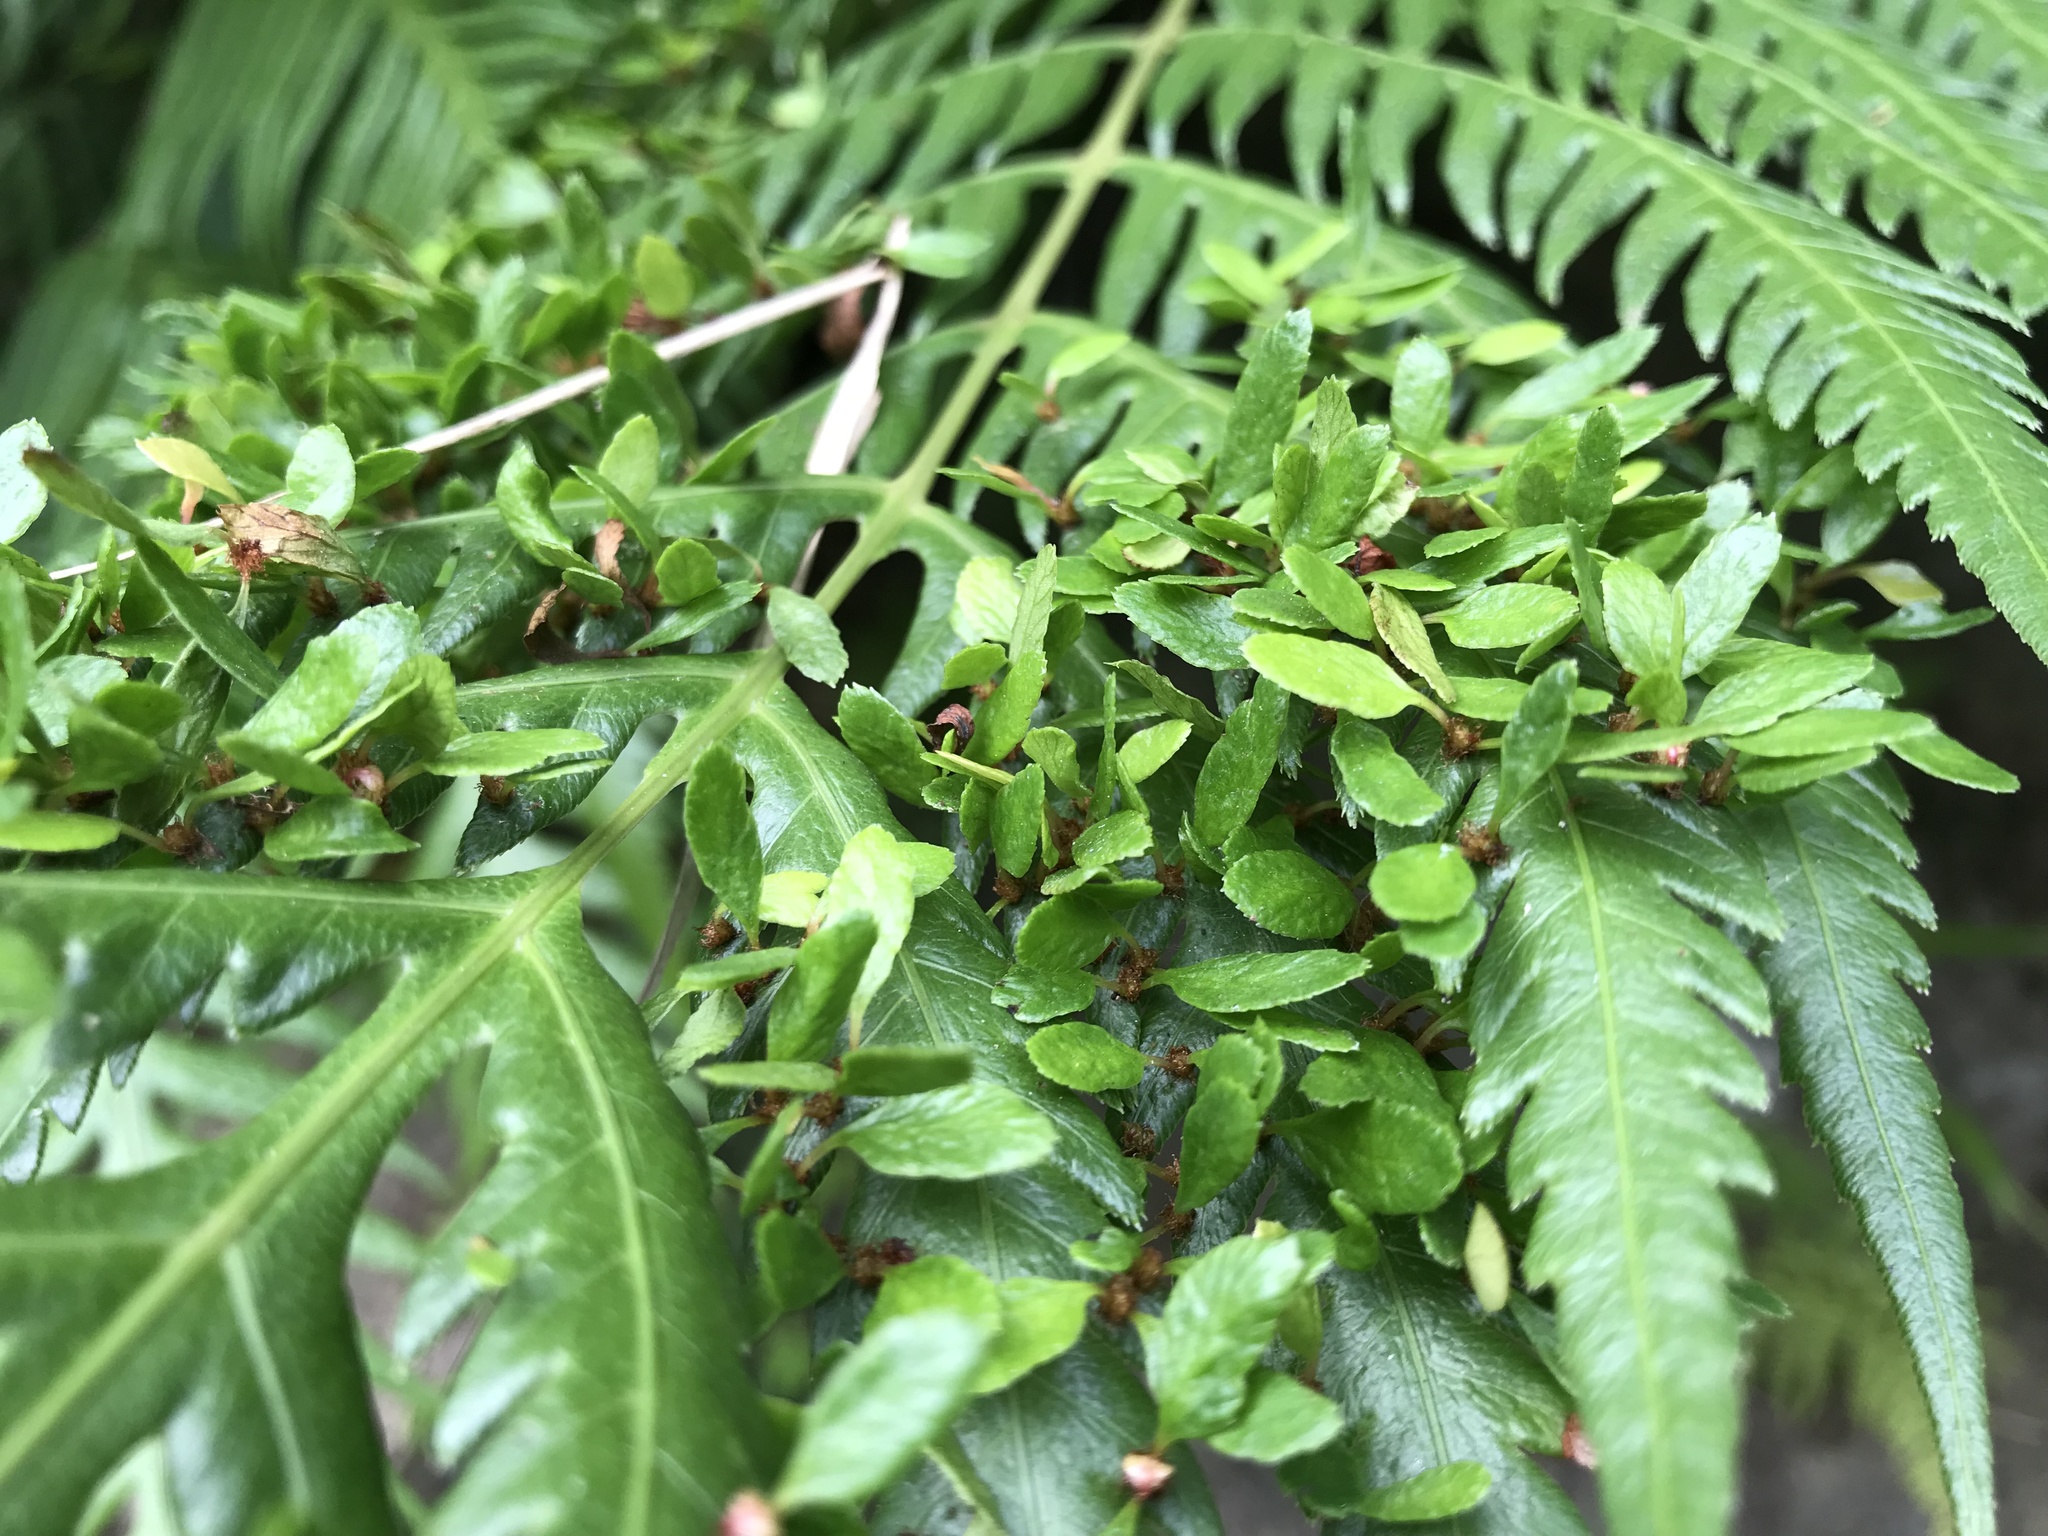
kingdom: Plantae
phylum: Tracheophyta
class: Polypodiopsida
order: Polypodiales
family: Blechnaceae
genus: Woodwardia
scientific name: Woodwardia prolifera
